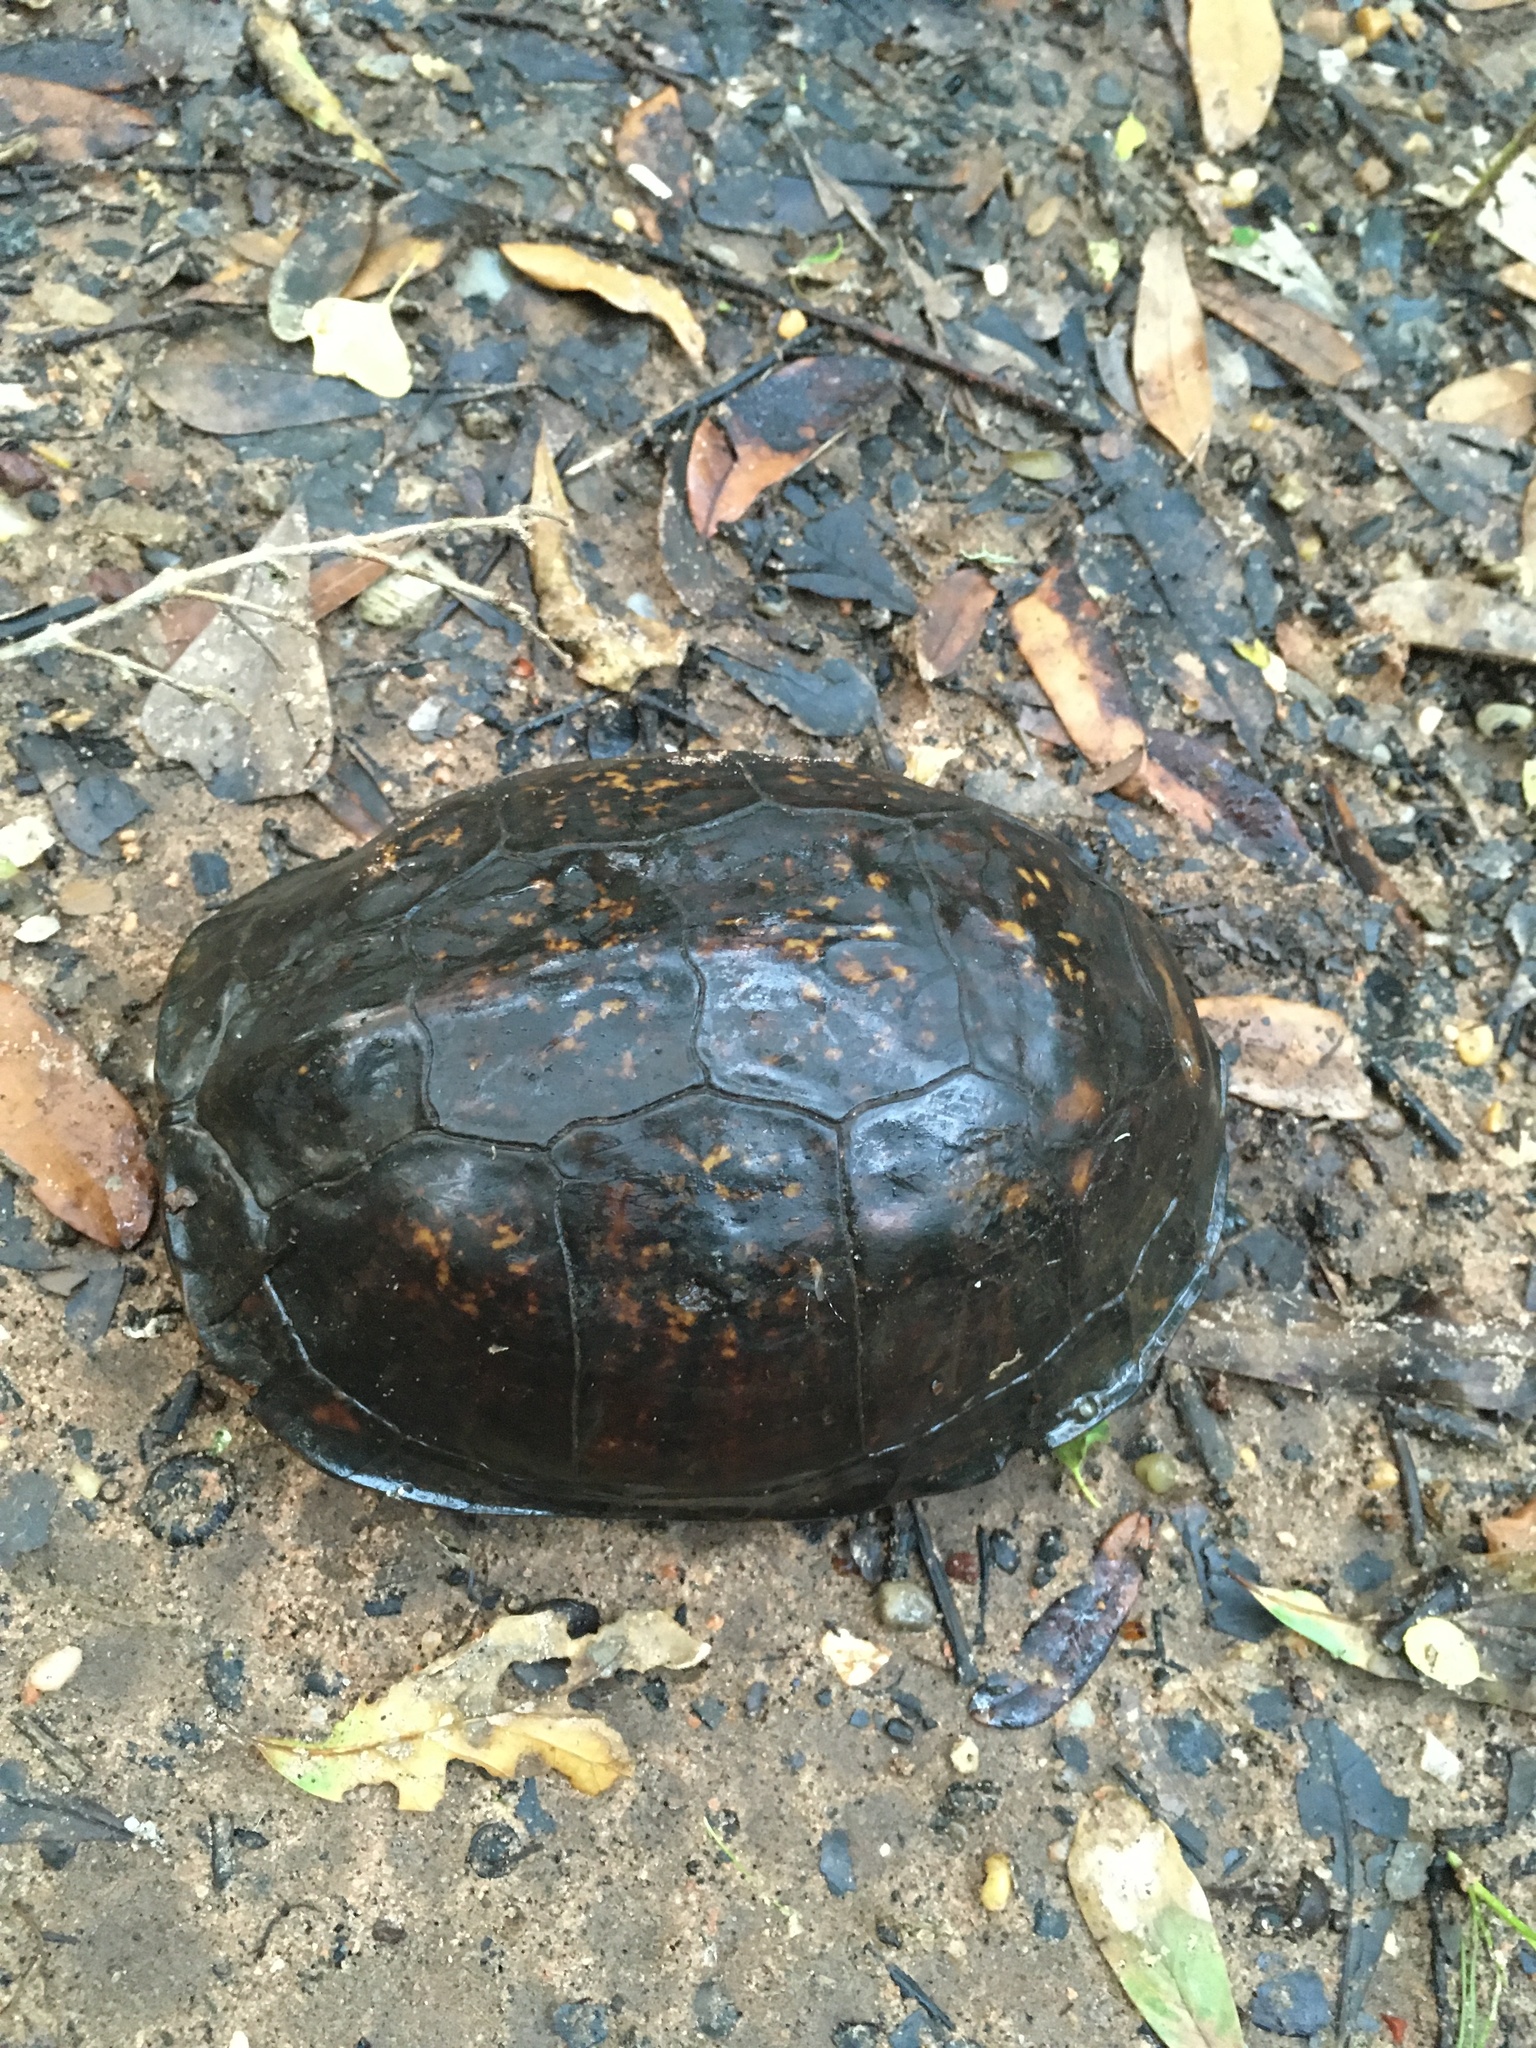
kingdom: Animalia
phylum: Chordata
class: Testudines
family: Emydidae
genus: Terrapene
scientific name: Terrapene carolina
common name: Common box turtle
